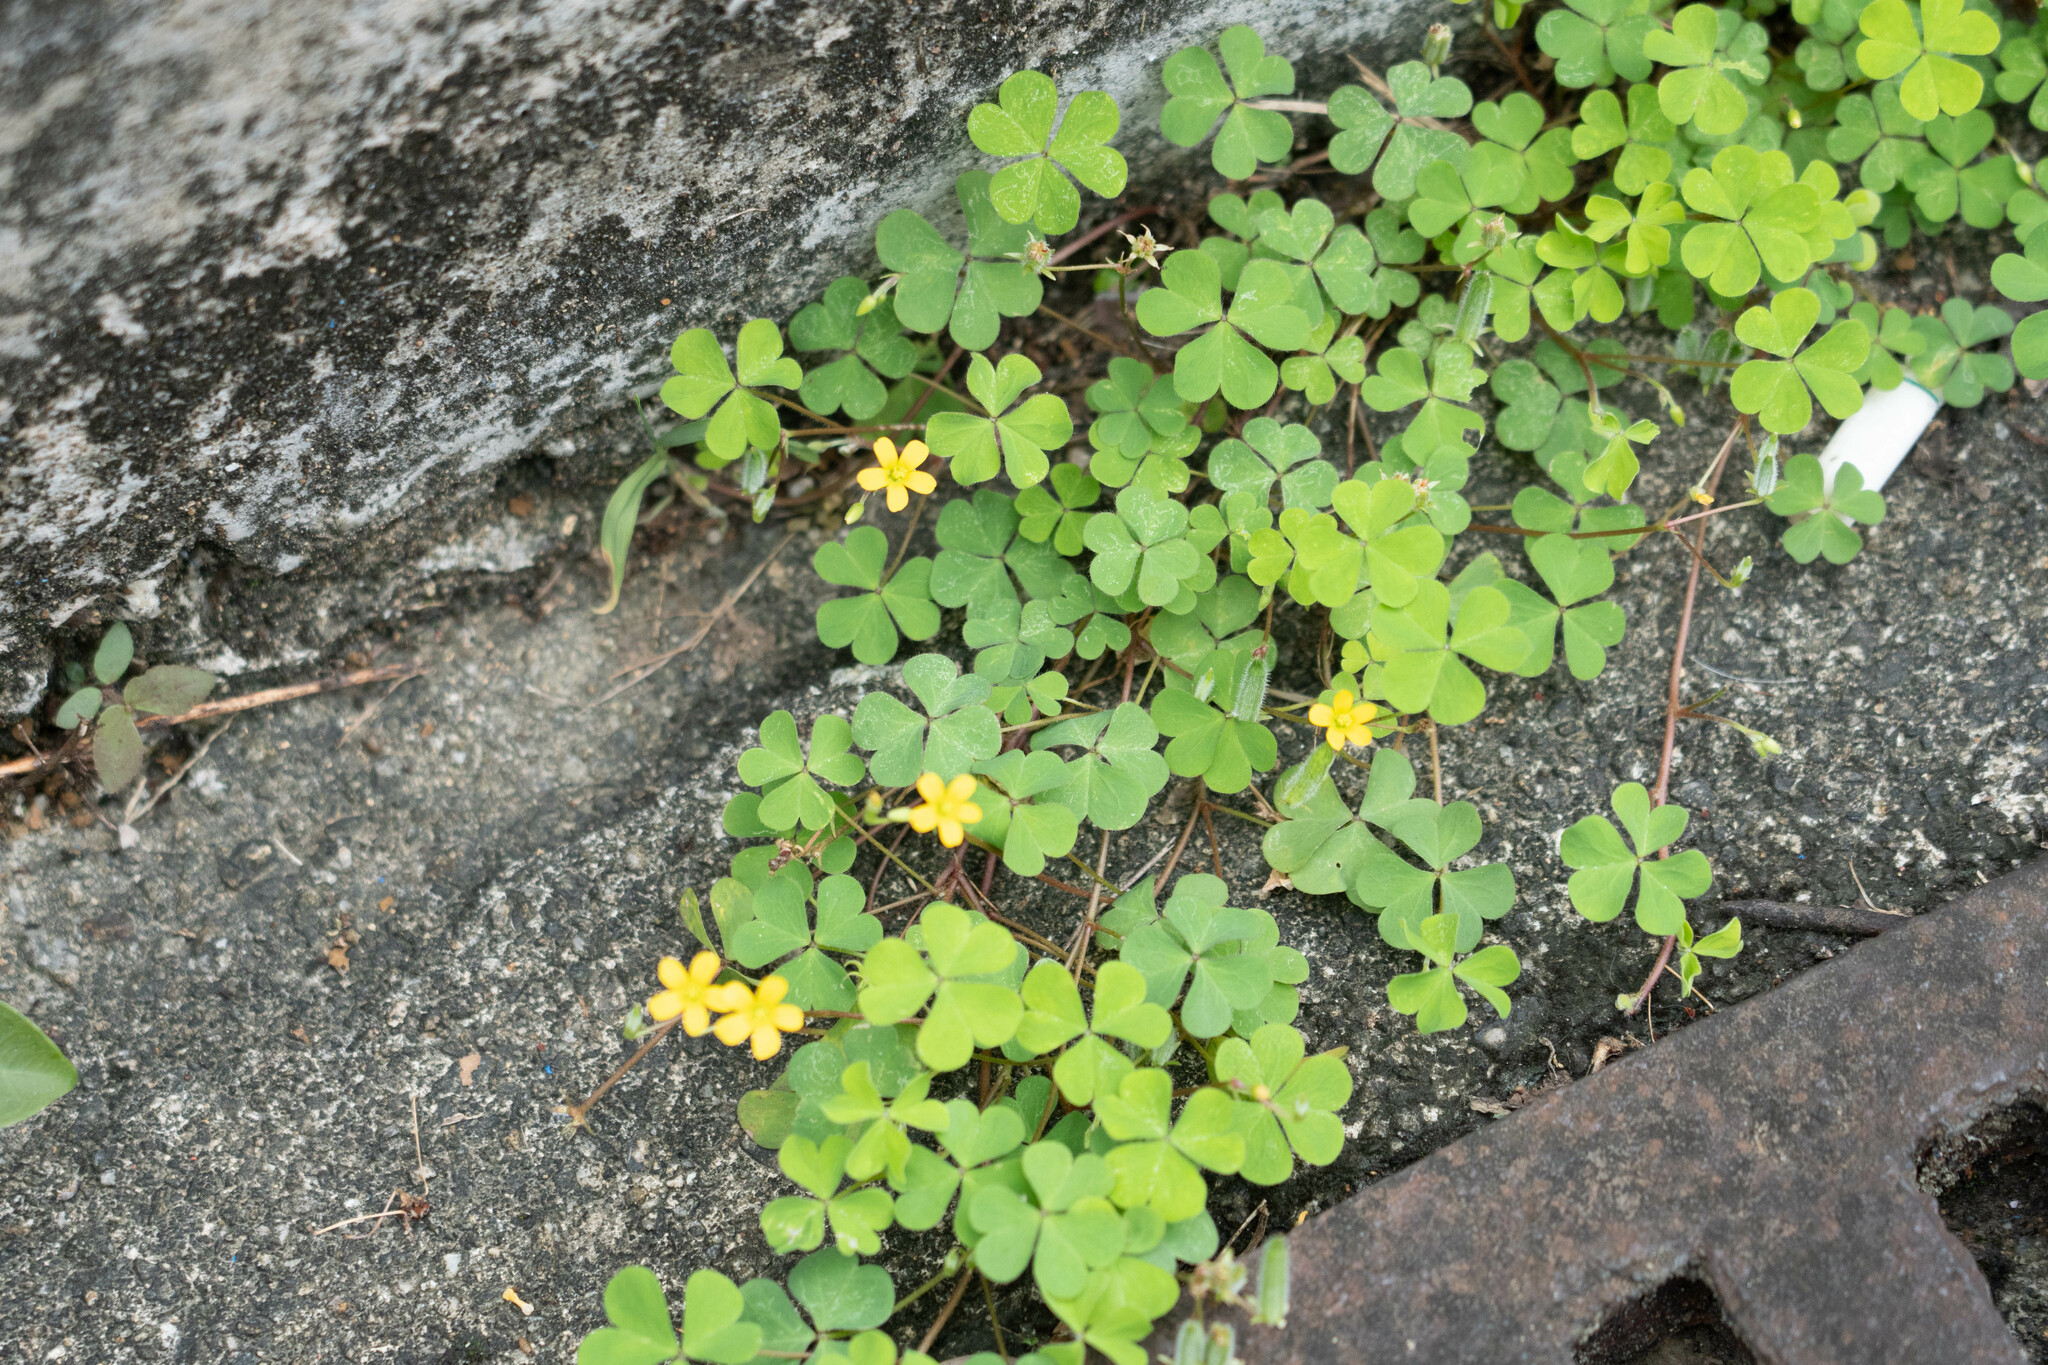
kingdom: Plantae
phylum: Tracheophyta
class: Magnoliopsida
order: Oxalidales
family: Oxalidaceae
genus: Oxalis
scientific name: Oxalis corniculata
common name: Procumbent yellow-sorrel
